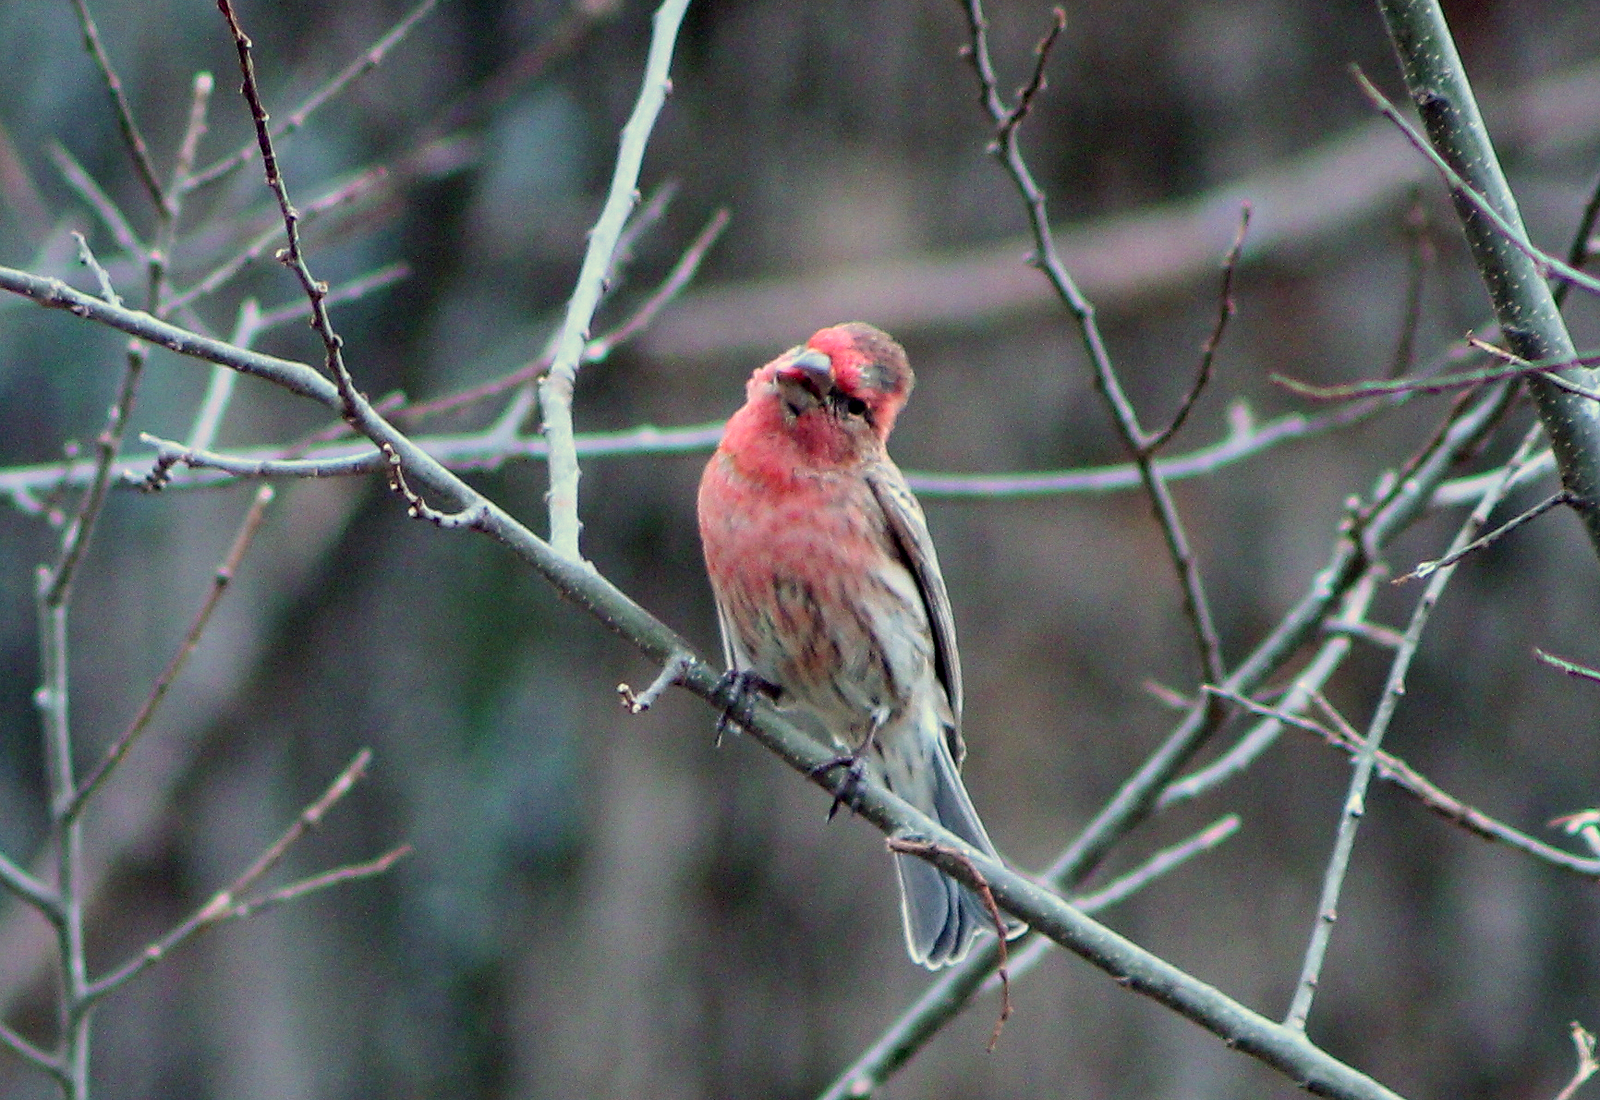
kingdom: Animalia
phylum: Chordata
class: Aves
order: Passeriformes
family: Fringillidae
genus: Haemorhous
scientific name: Haemorhous mexicanus
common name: House finch
